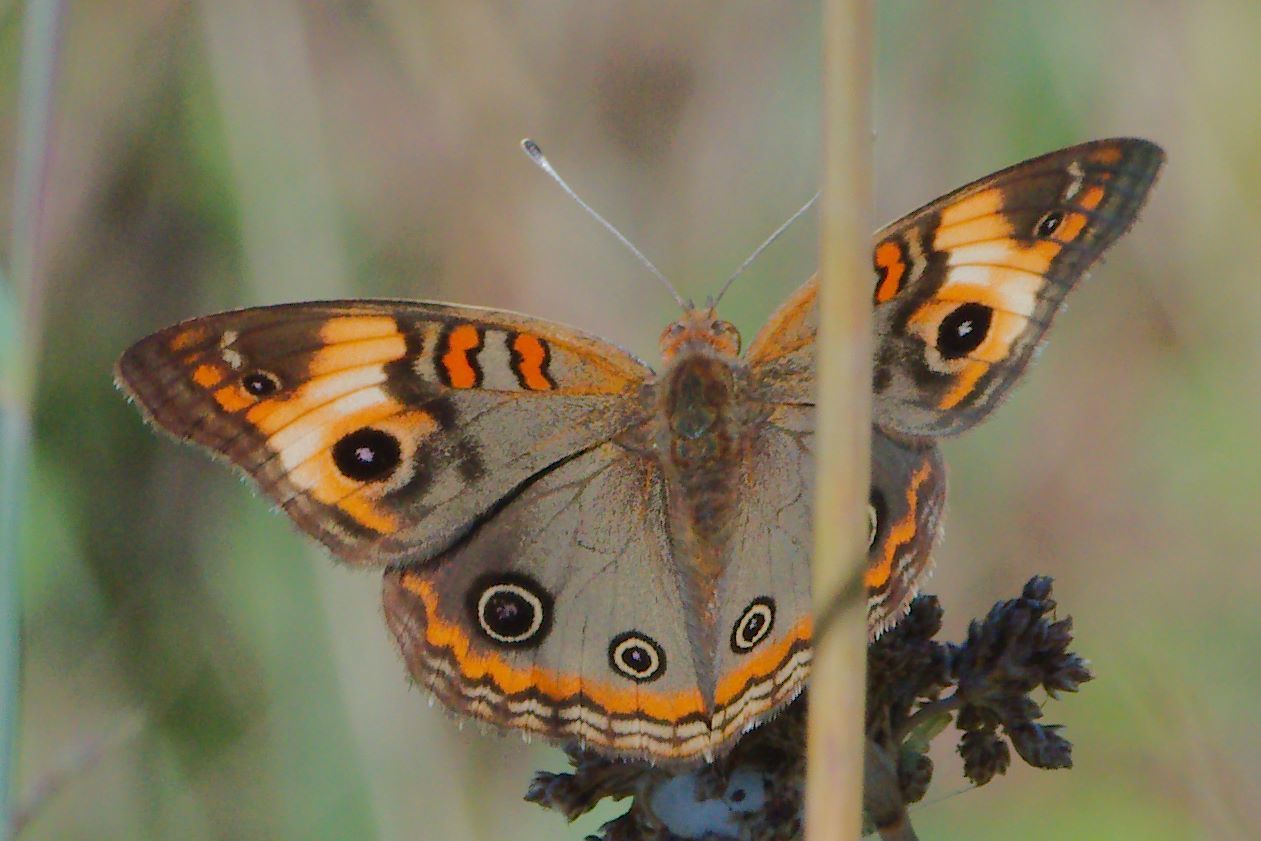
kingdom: Animalia
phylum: Arthropoda
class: Insecta
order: Lepidoptera
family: Nymphalidae
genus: Junonia
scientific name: Junonia lavinia
